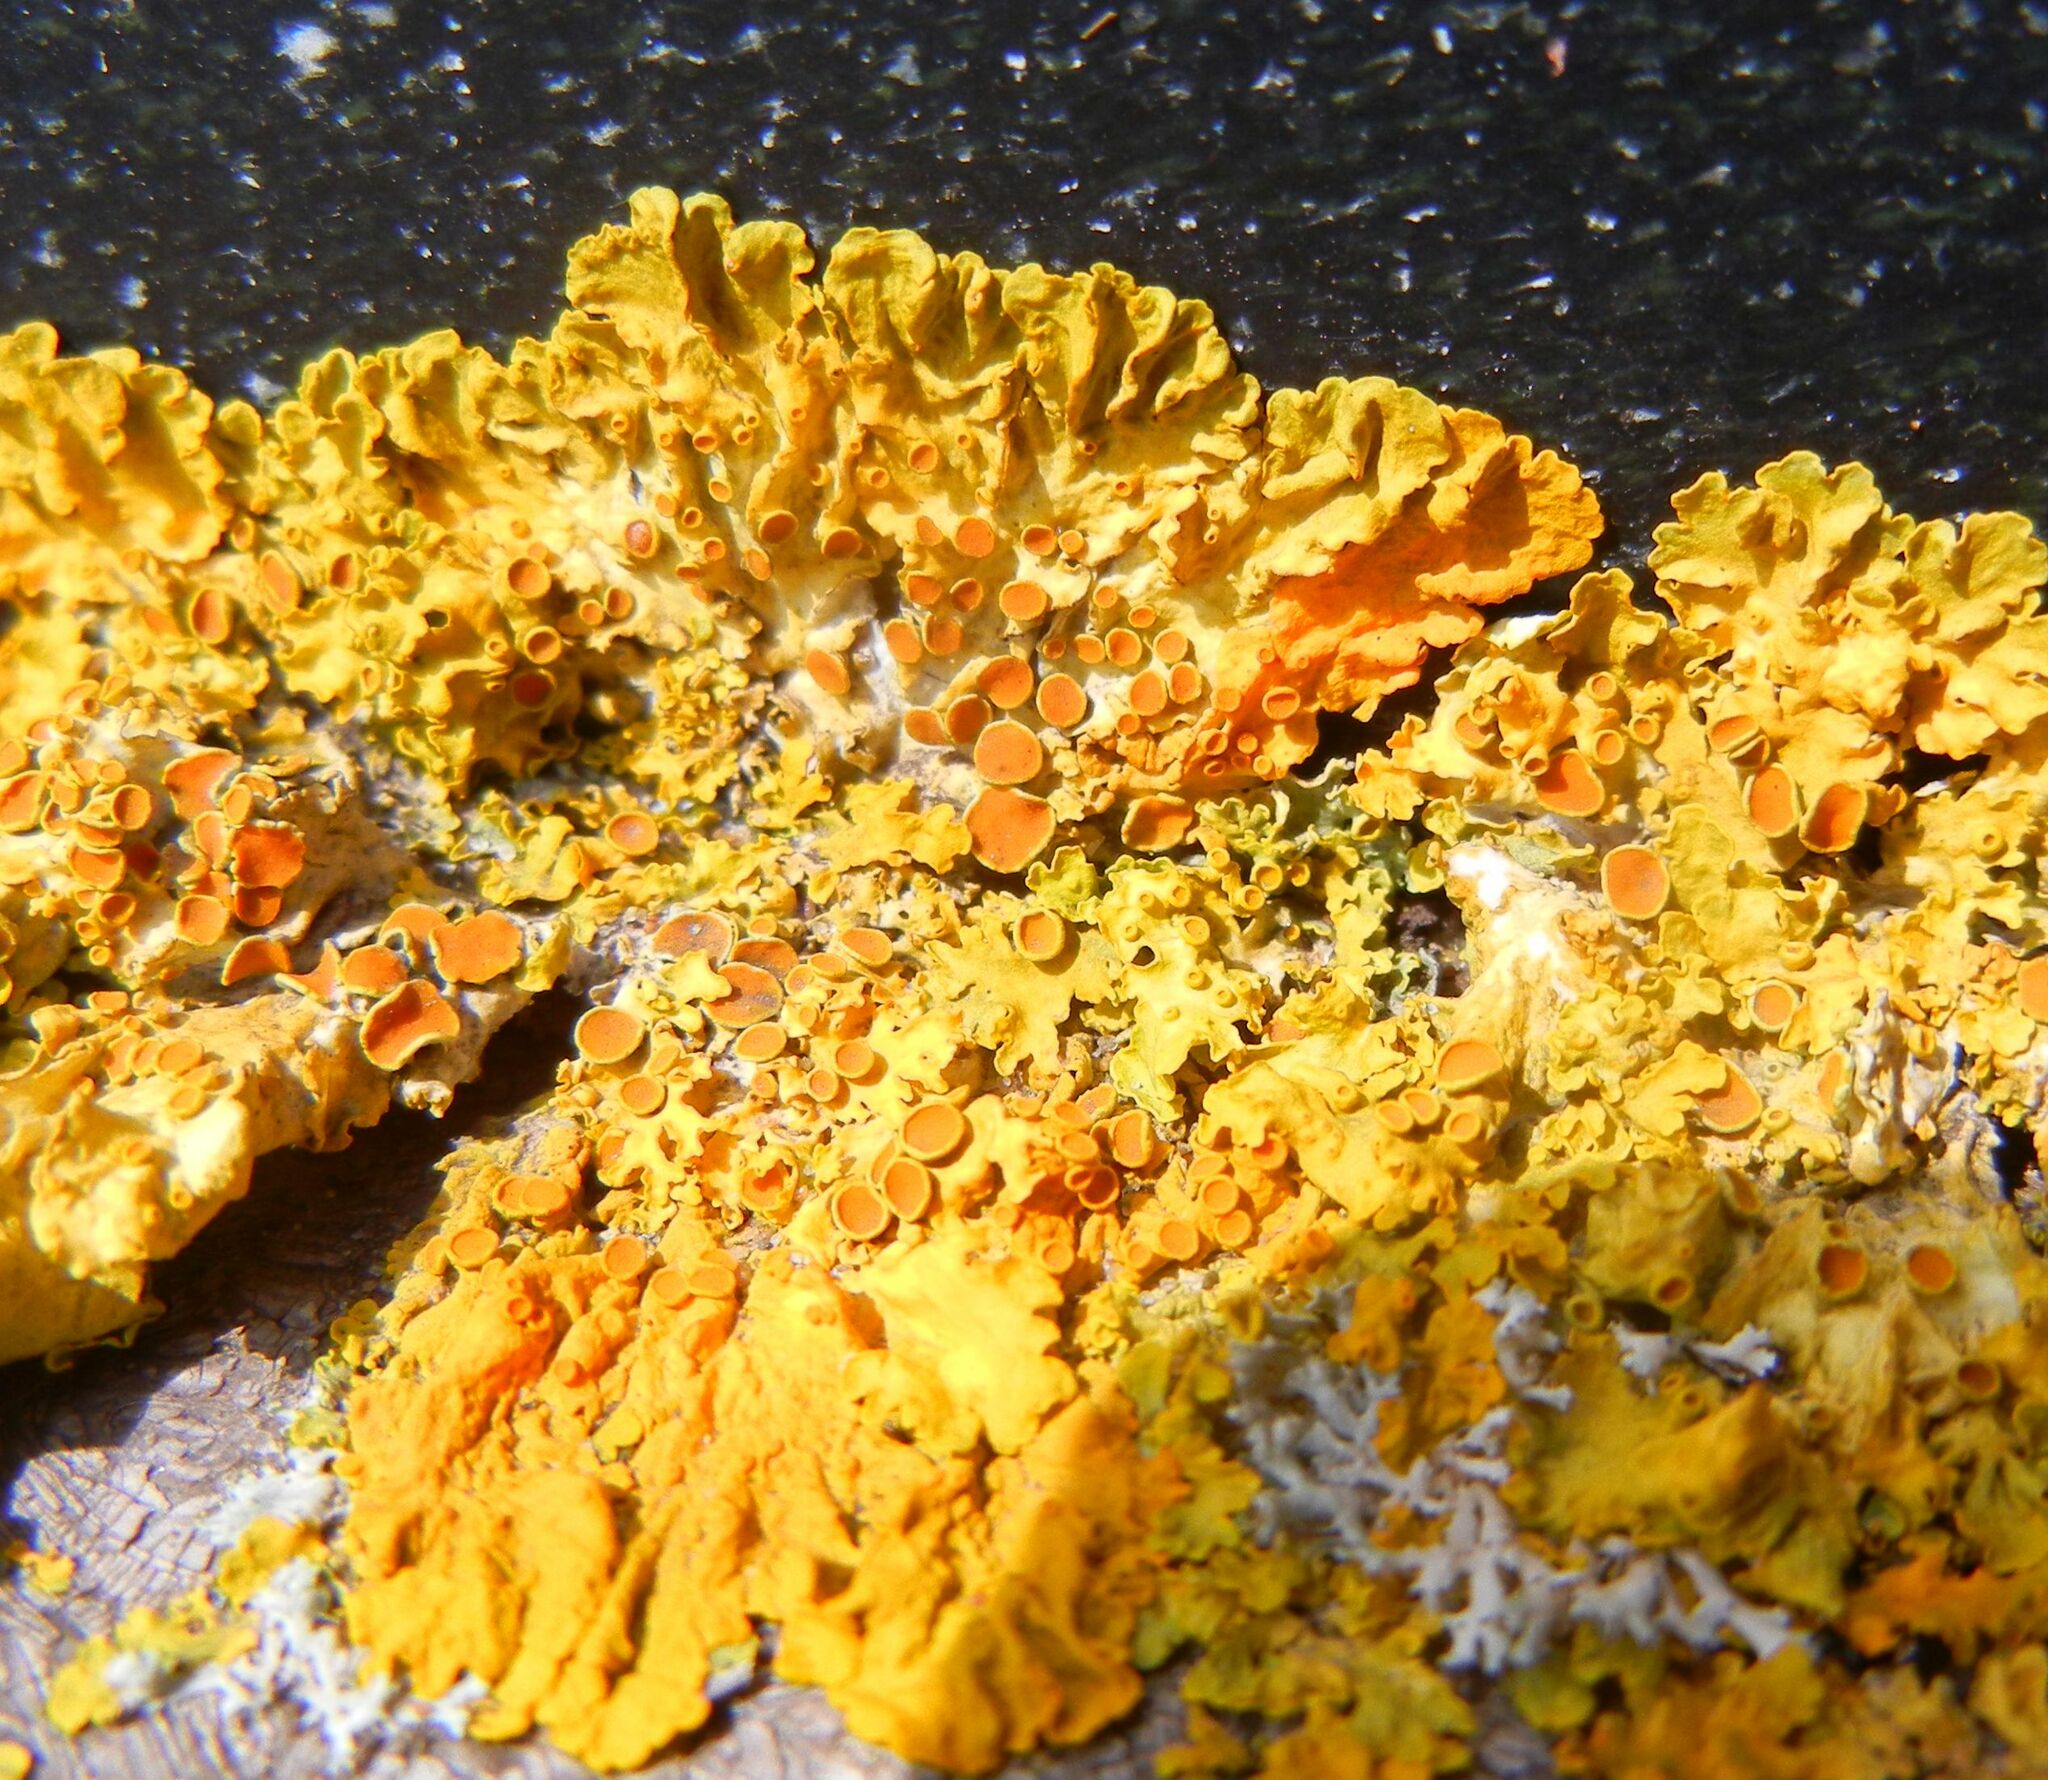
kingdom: Fungi
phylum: Ascomycota
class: Lecanoromycetes
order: Teloschistales
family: Teloschistaceae
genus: Xanthoria
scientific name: Xanthoria parietina
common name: Common orange lichen
